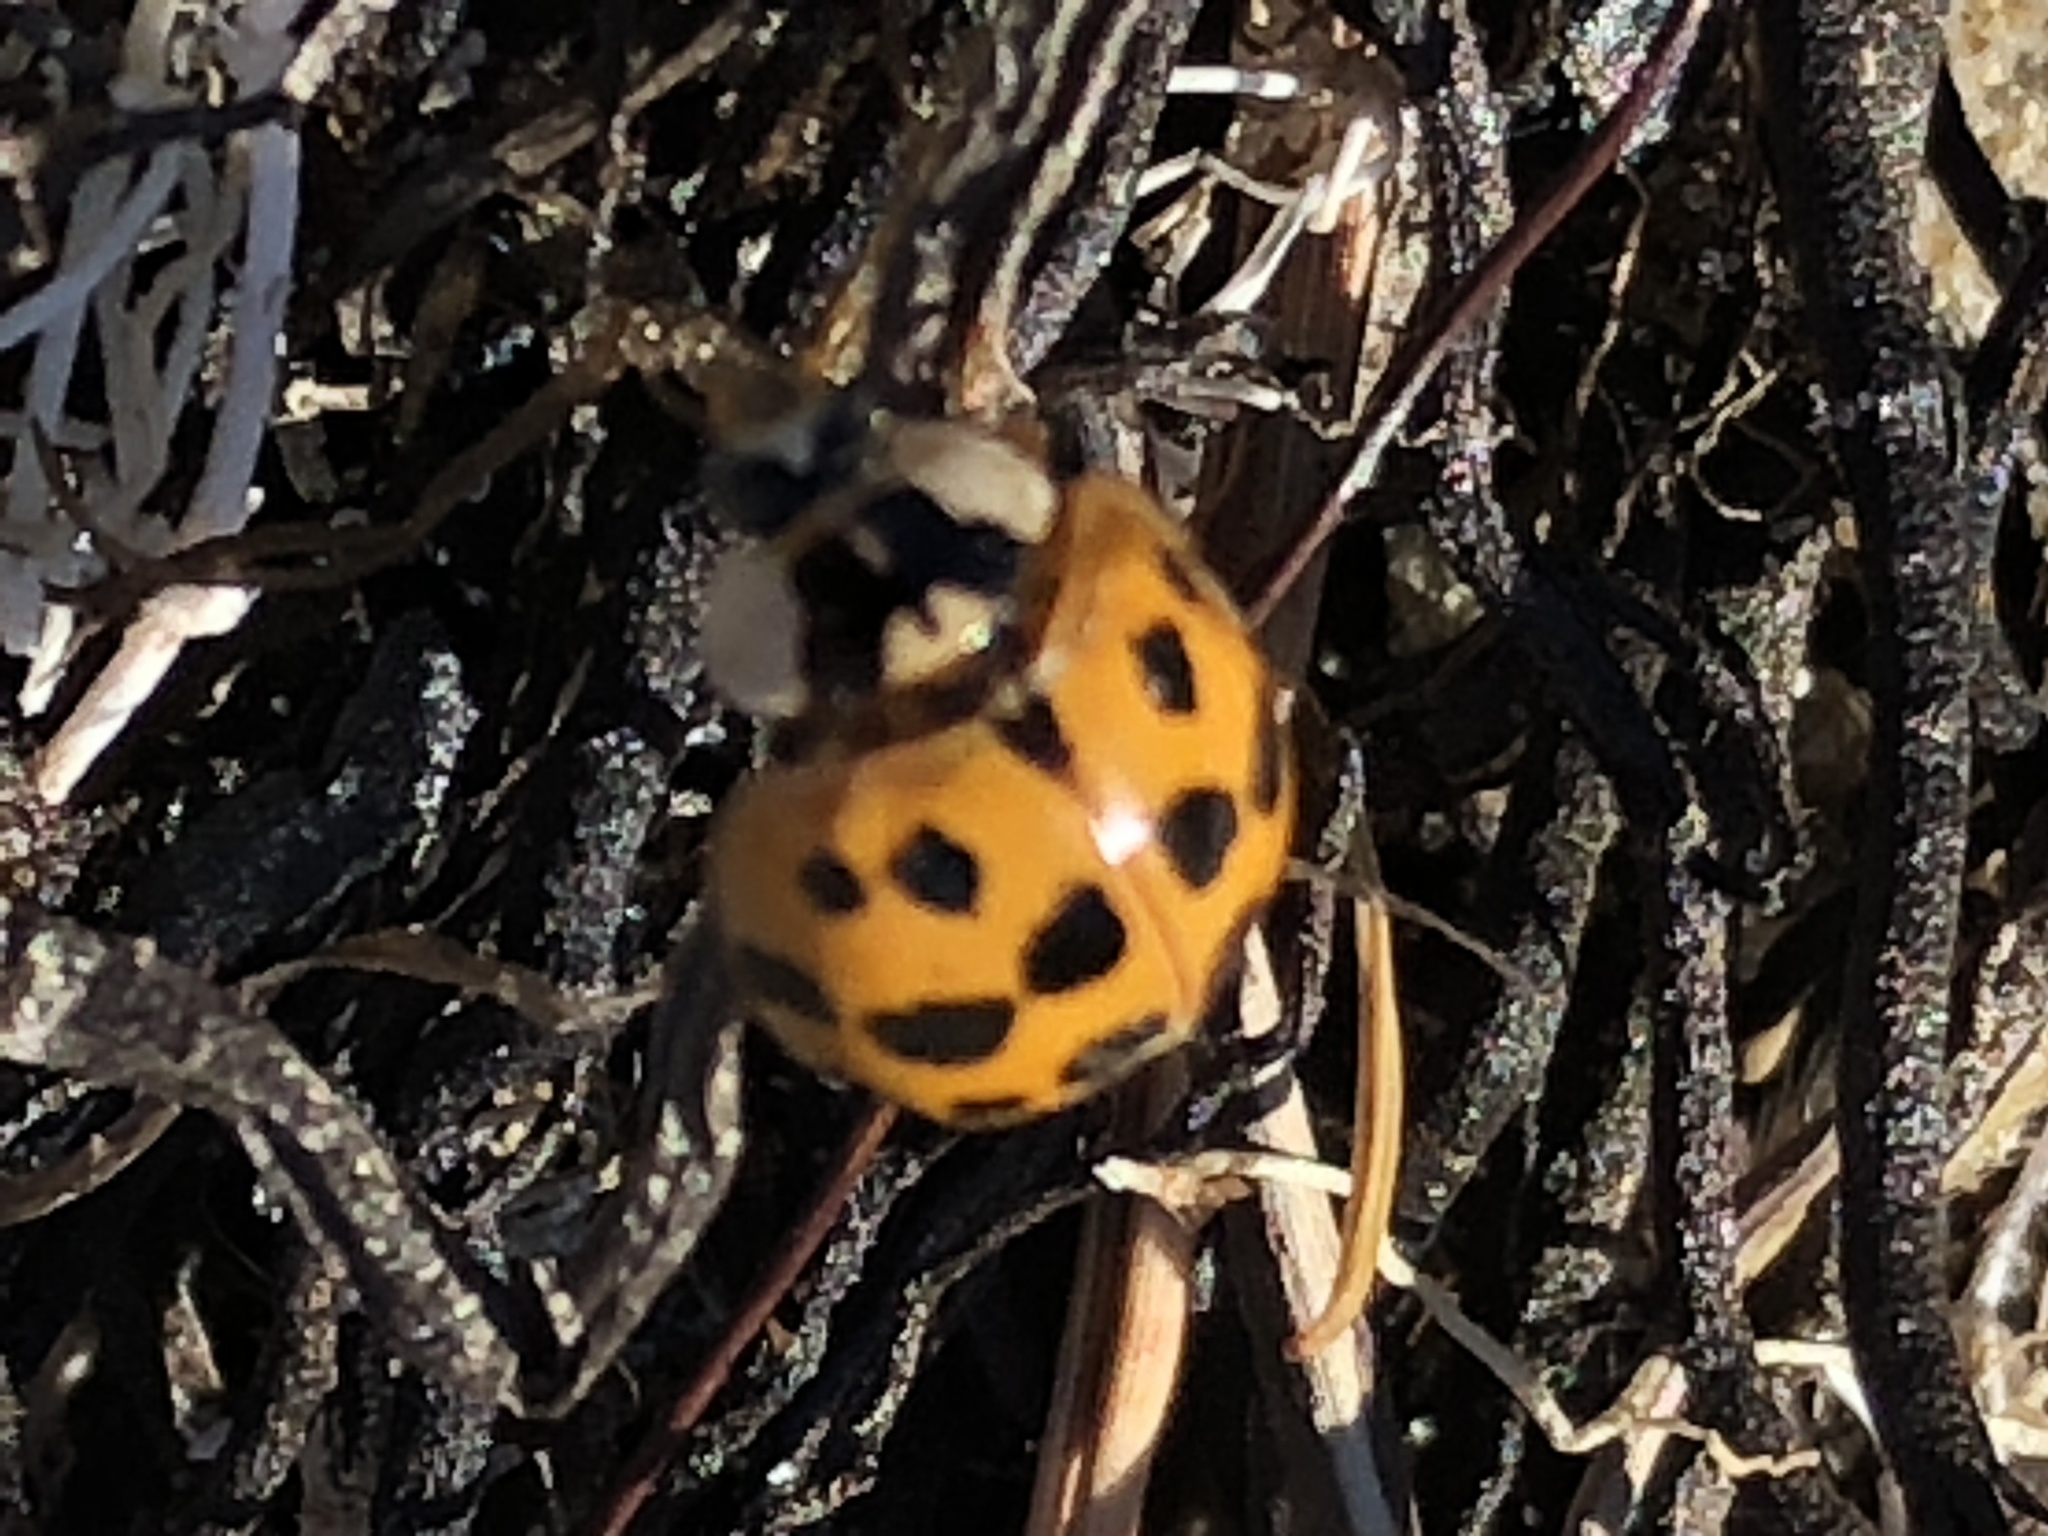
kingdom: Animalia
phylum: Arthropoda
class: Insecta
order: Coleoptera
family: Coccinellidae
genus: Harmonia
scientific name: Harmonia axyridis
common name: Harlequin ladybird
